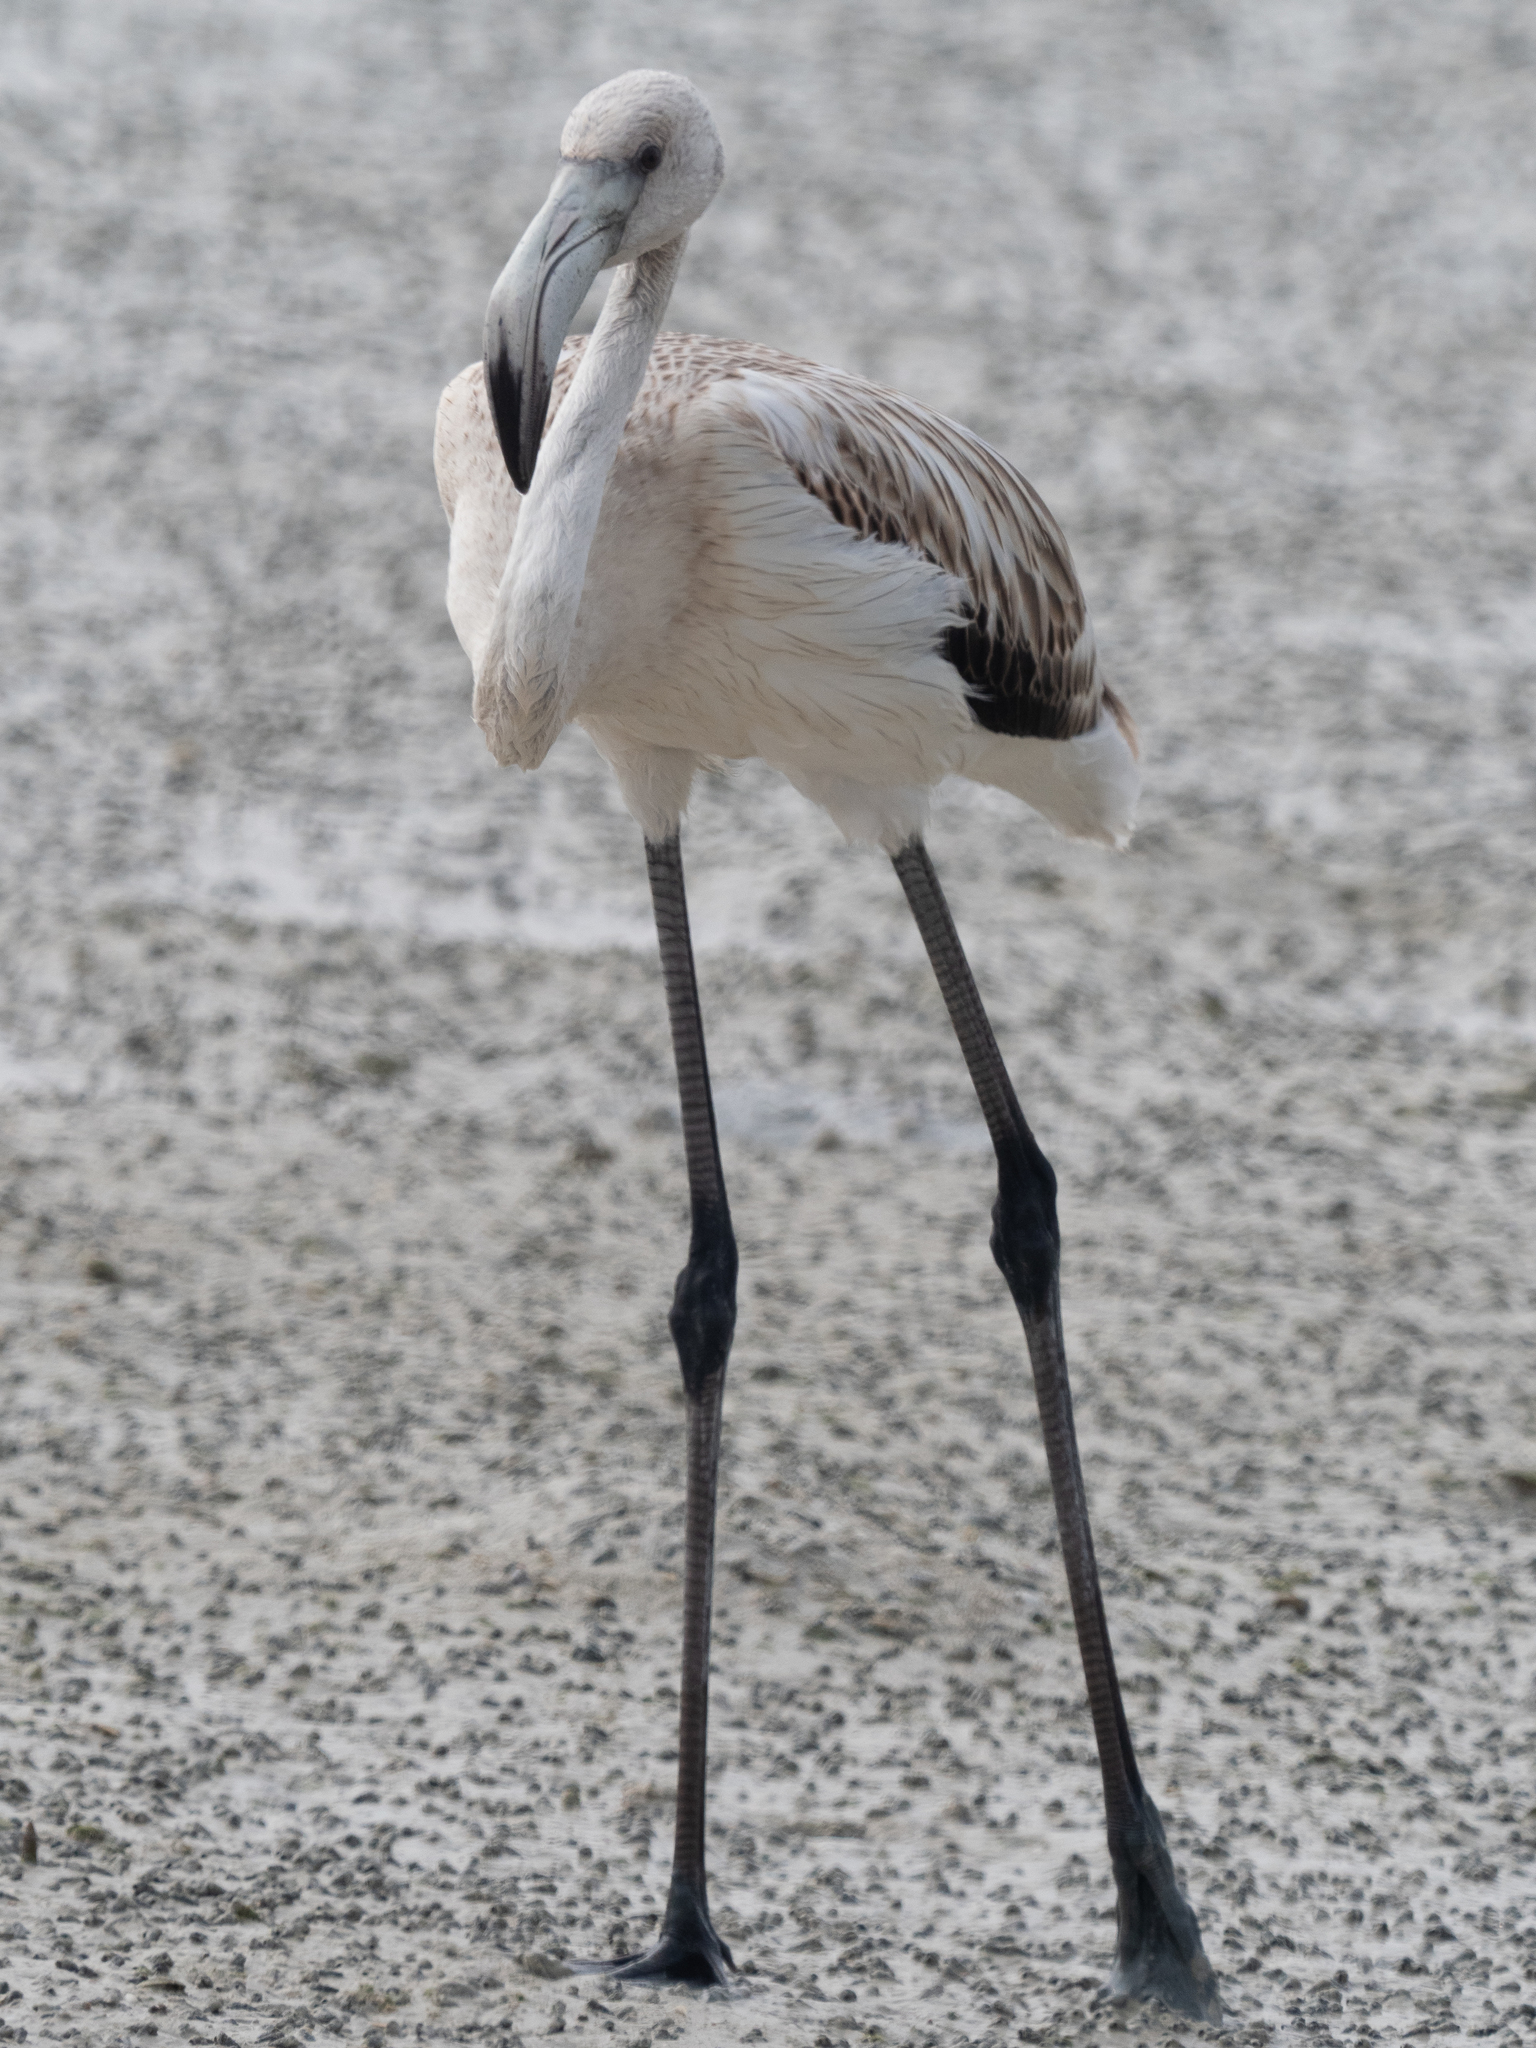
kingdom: Animalia
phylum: Chordata
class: Aves
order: Phoenicopteriformes
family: Phoenicopteridae
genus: Phoenicopterus
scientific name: Phoenicopterus roseus
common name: Greater flamingo
